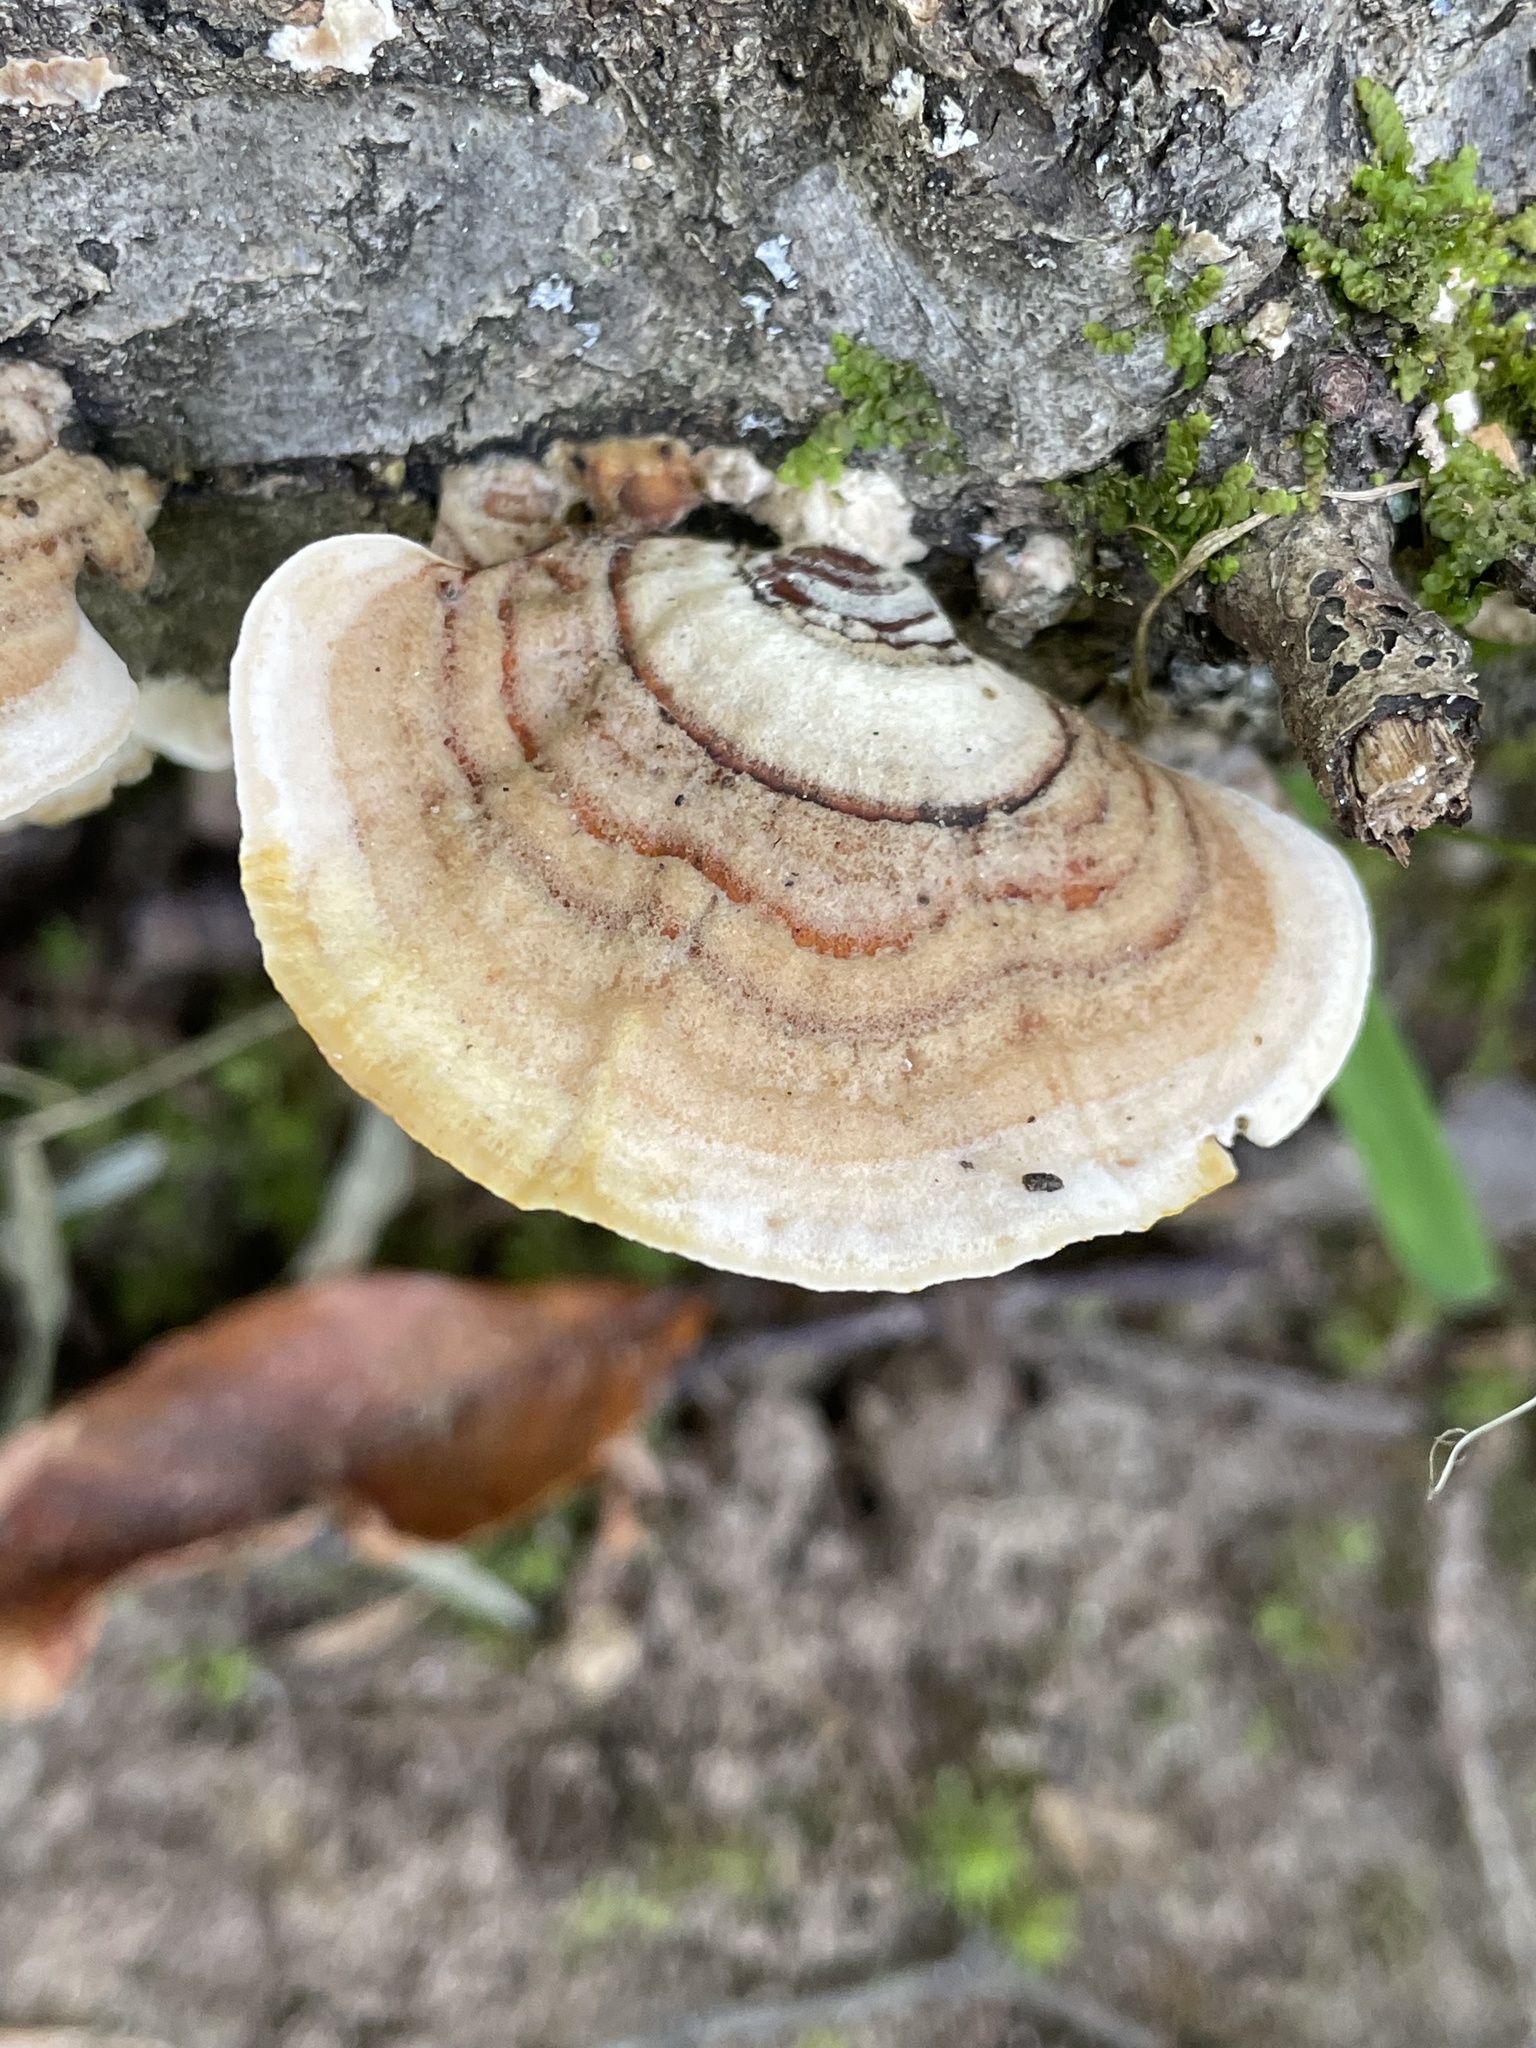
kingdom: Fungi
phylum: Basidiomycota
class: Agaricomycetes
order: Russulales
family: Stereaceae
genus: Stereum
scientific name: Stereum lobatum
